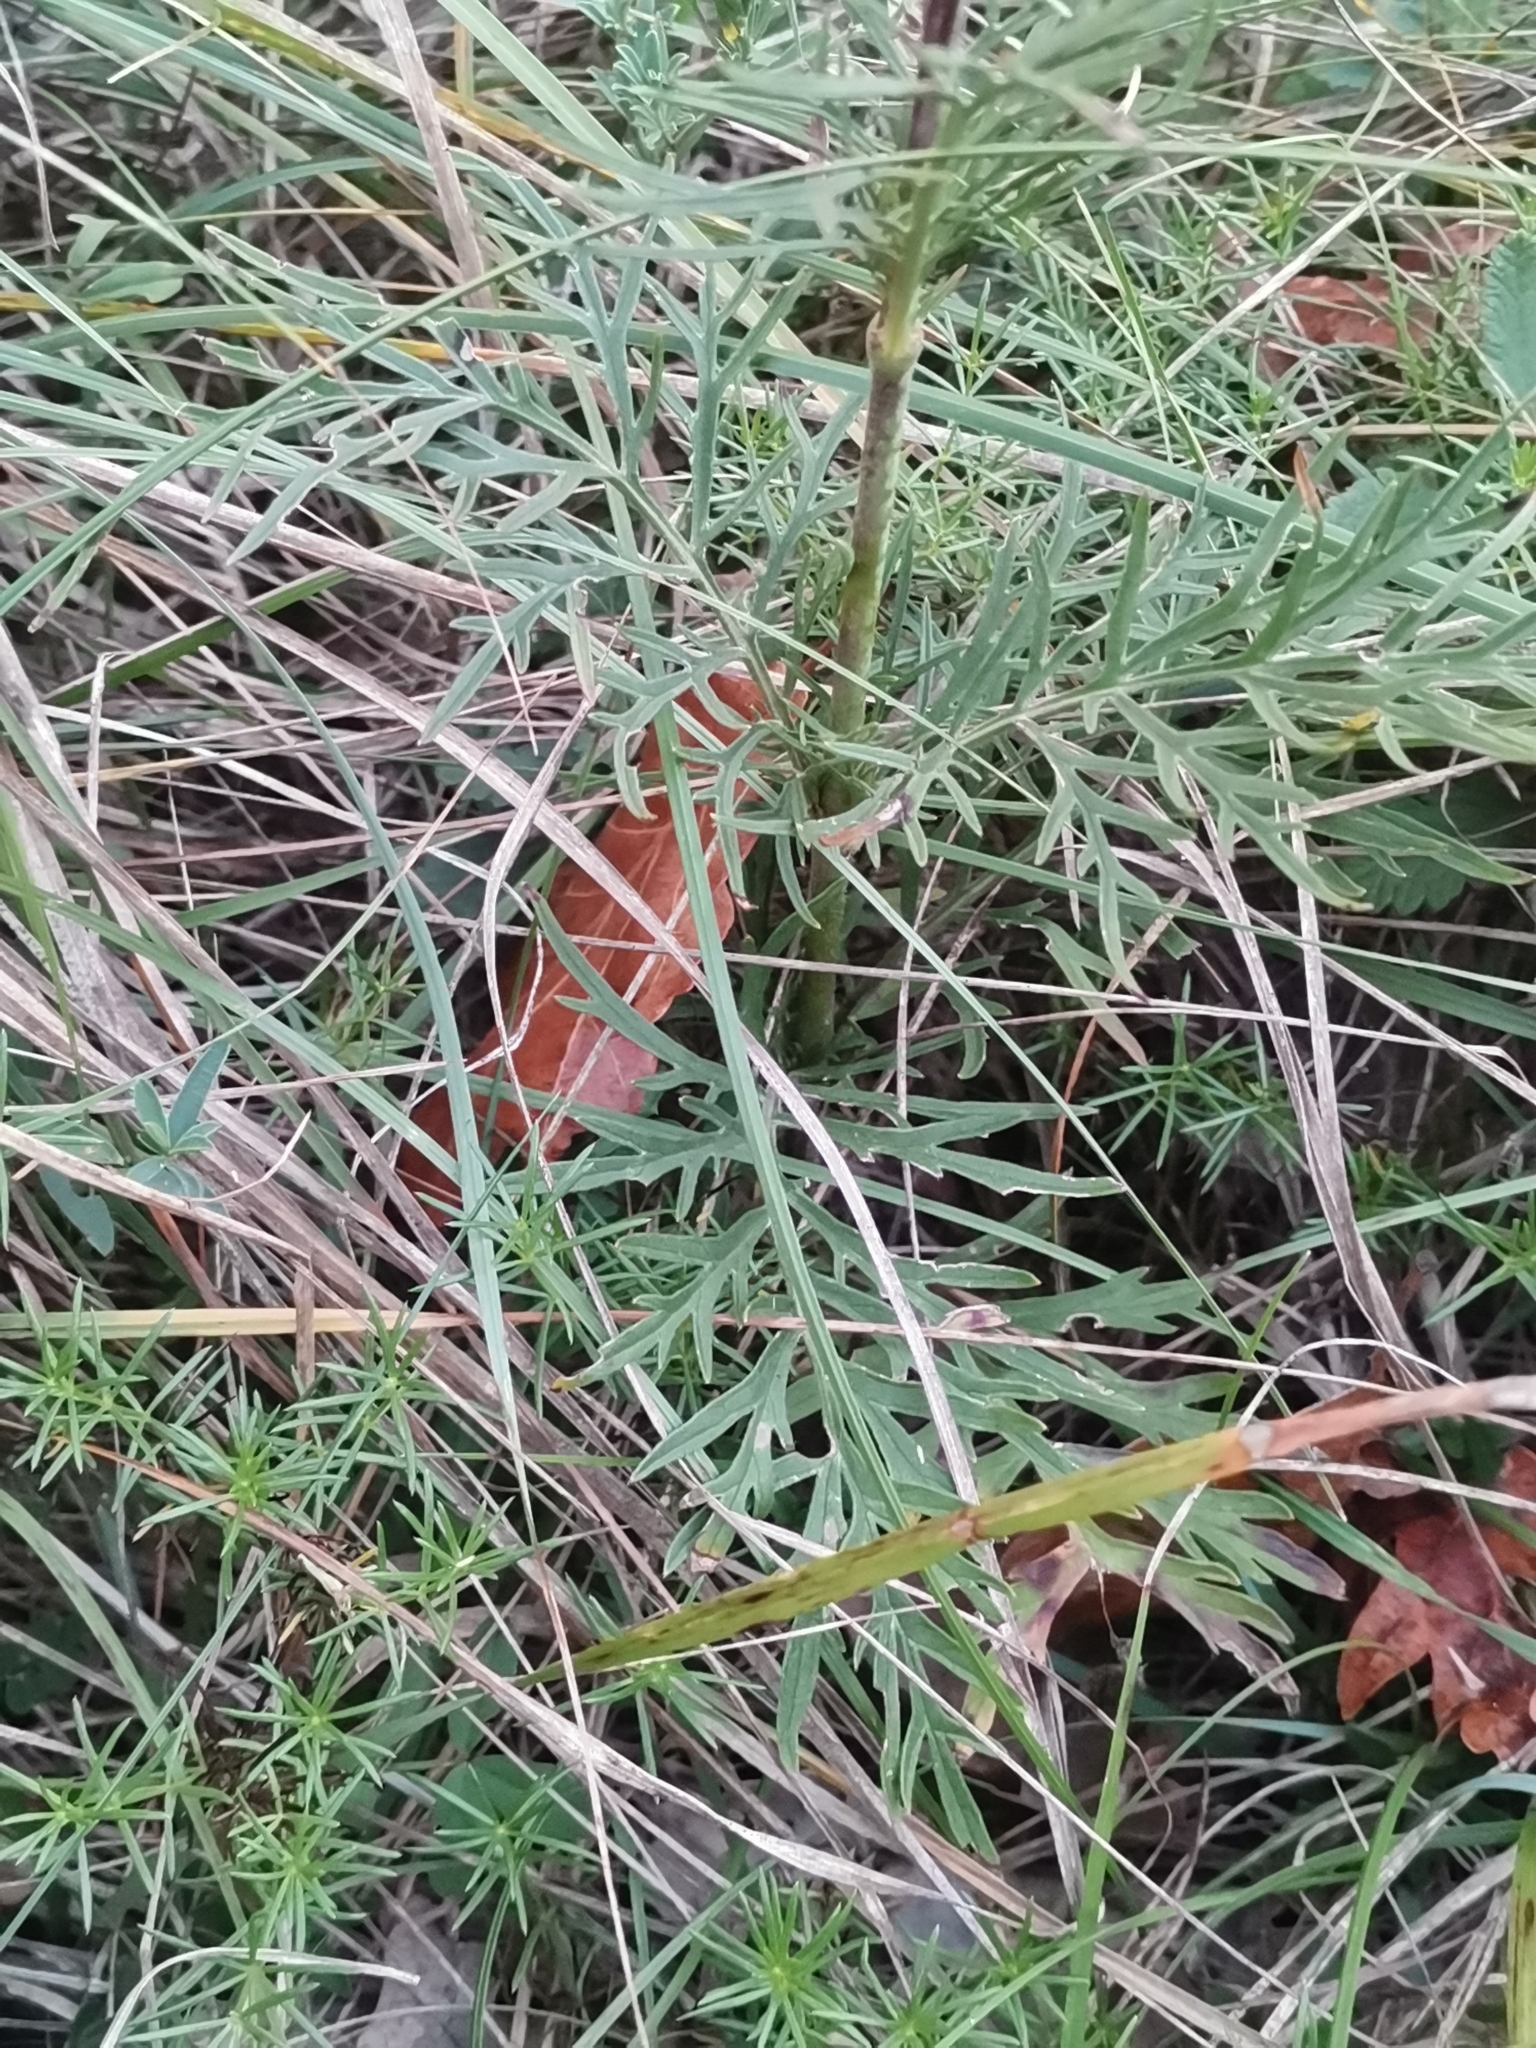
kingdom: Plantae
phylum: Tracheophyta
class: Magnoliopsida
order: Dipsacales
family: Caprifoliaceae
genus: Scabiosa
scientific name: Scabiosa triandra
